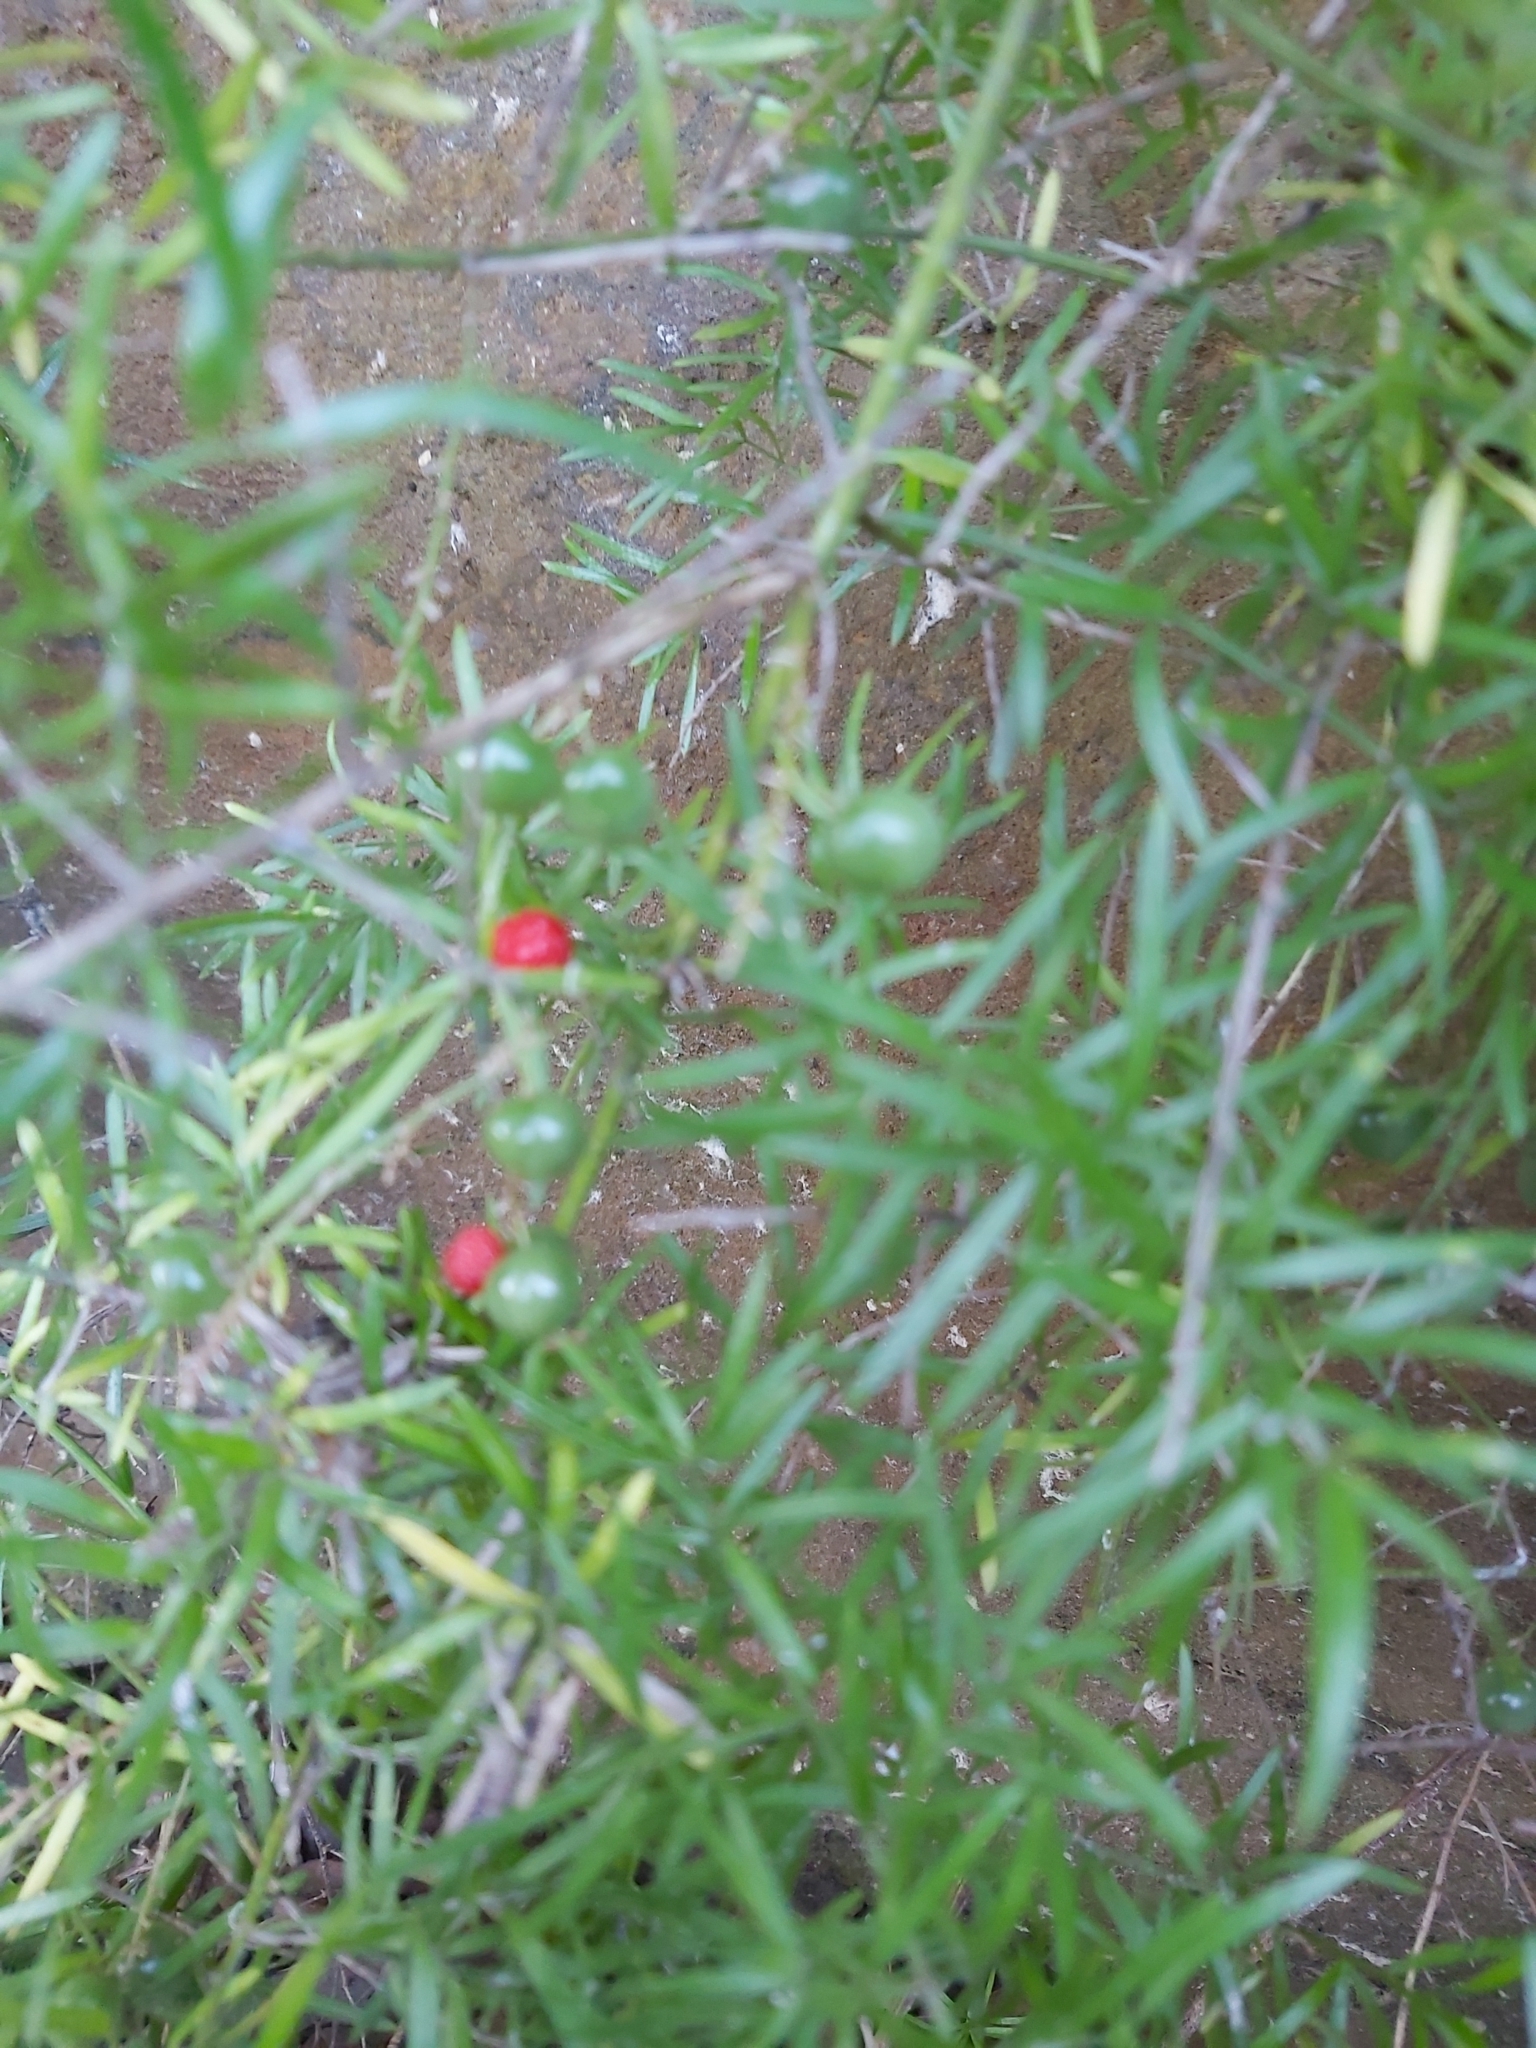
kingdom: Plantae
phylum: Tracheophyta
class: Liliopsida
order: Asparagales
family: Asparagaceae
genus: Asparagus
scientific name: Asparagus aethiopicus
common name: Sprenger's asparagus fern
